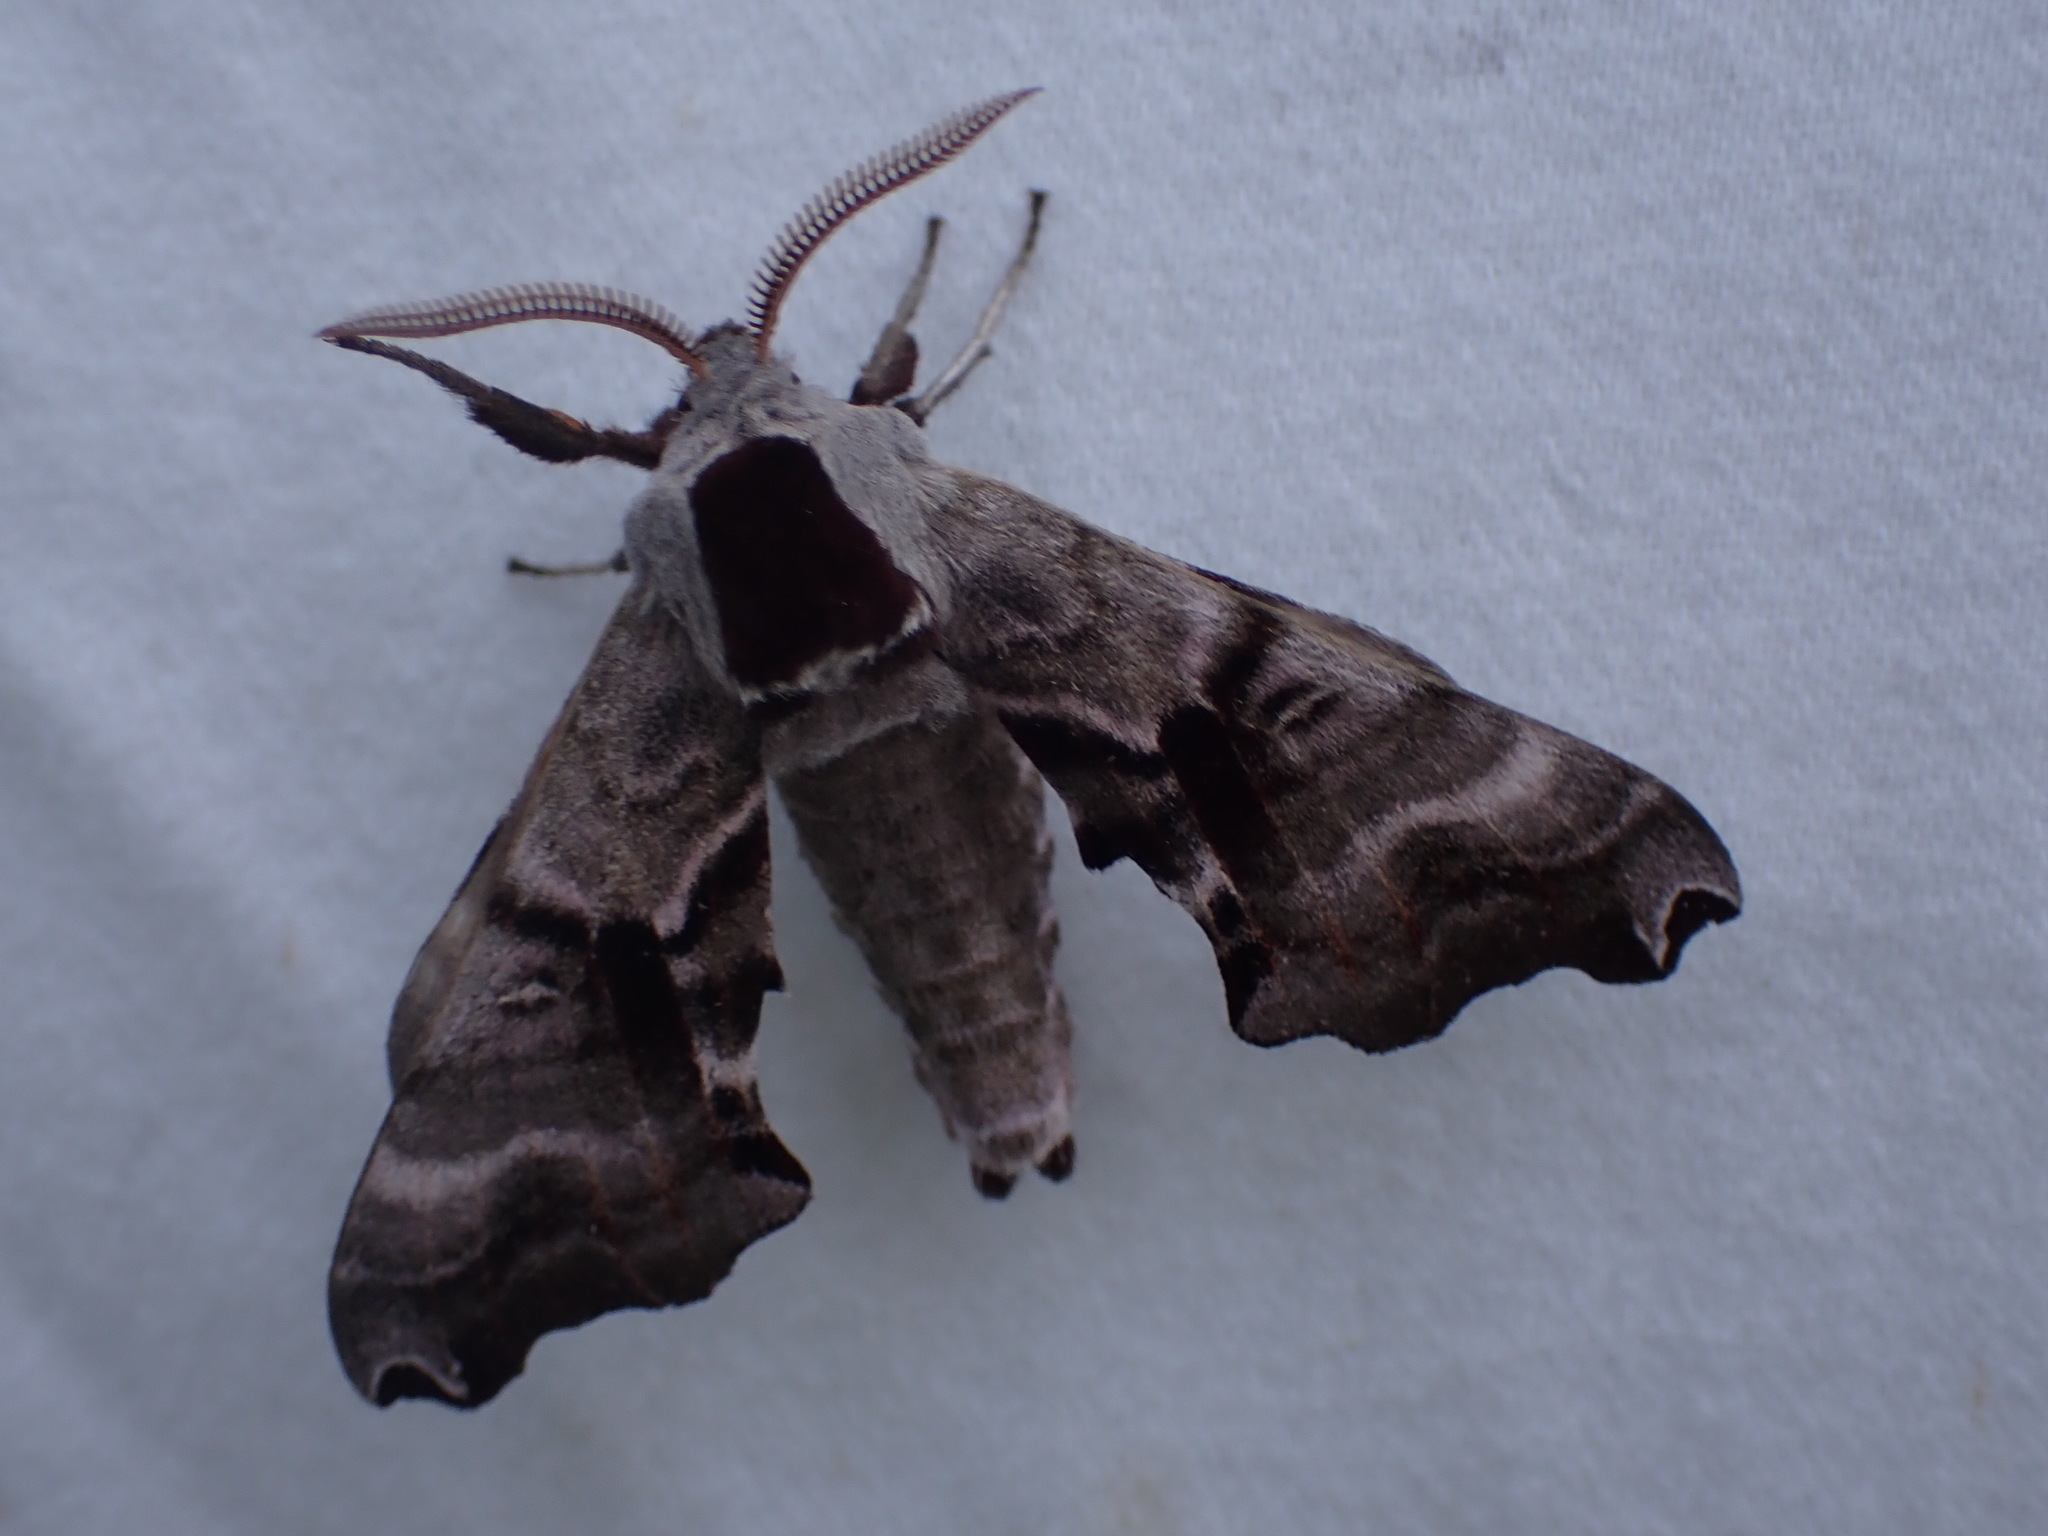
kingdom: Animalia
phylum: Arthropoda
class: Insecta
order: Lepidoptera
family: Sphingidae
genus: Smerinthus
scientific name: Smerinthus jamaicensis
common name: Twin spotted sphinx
